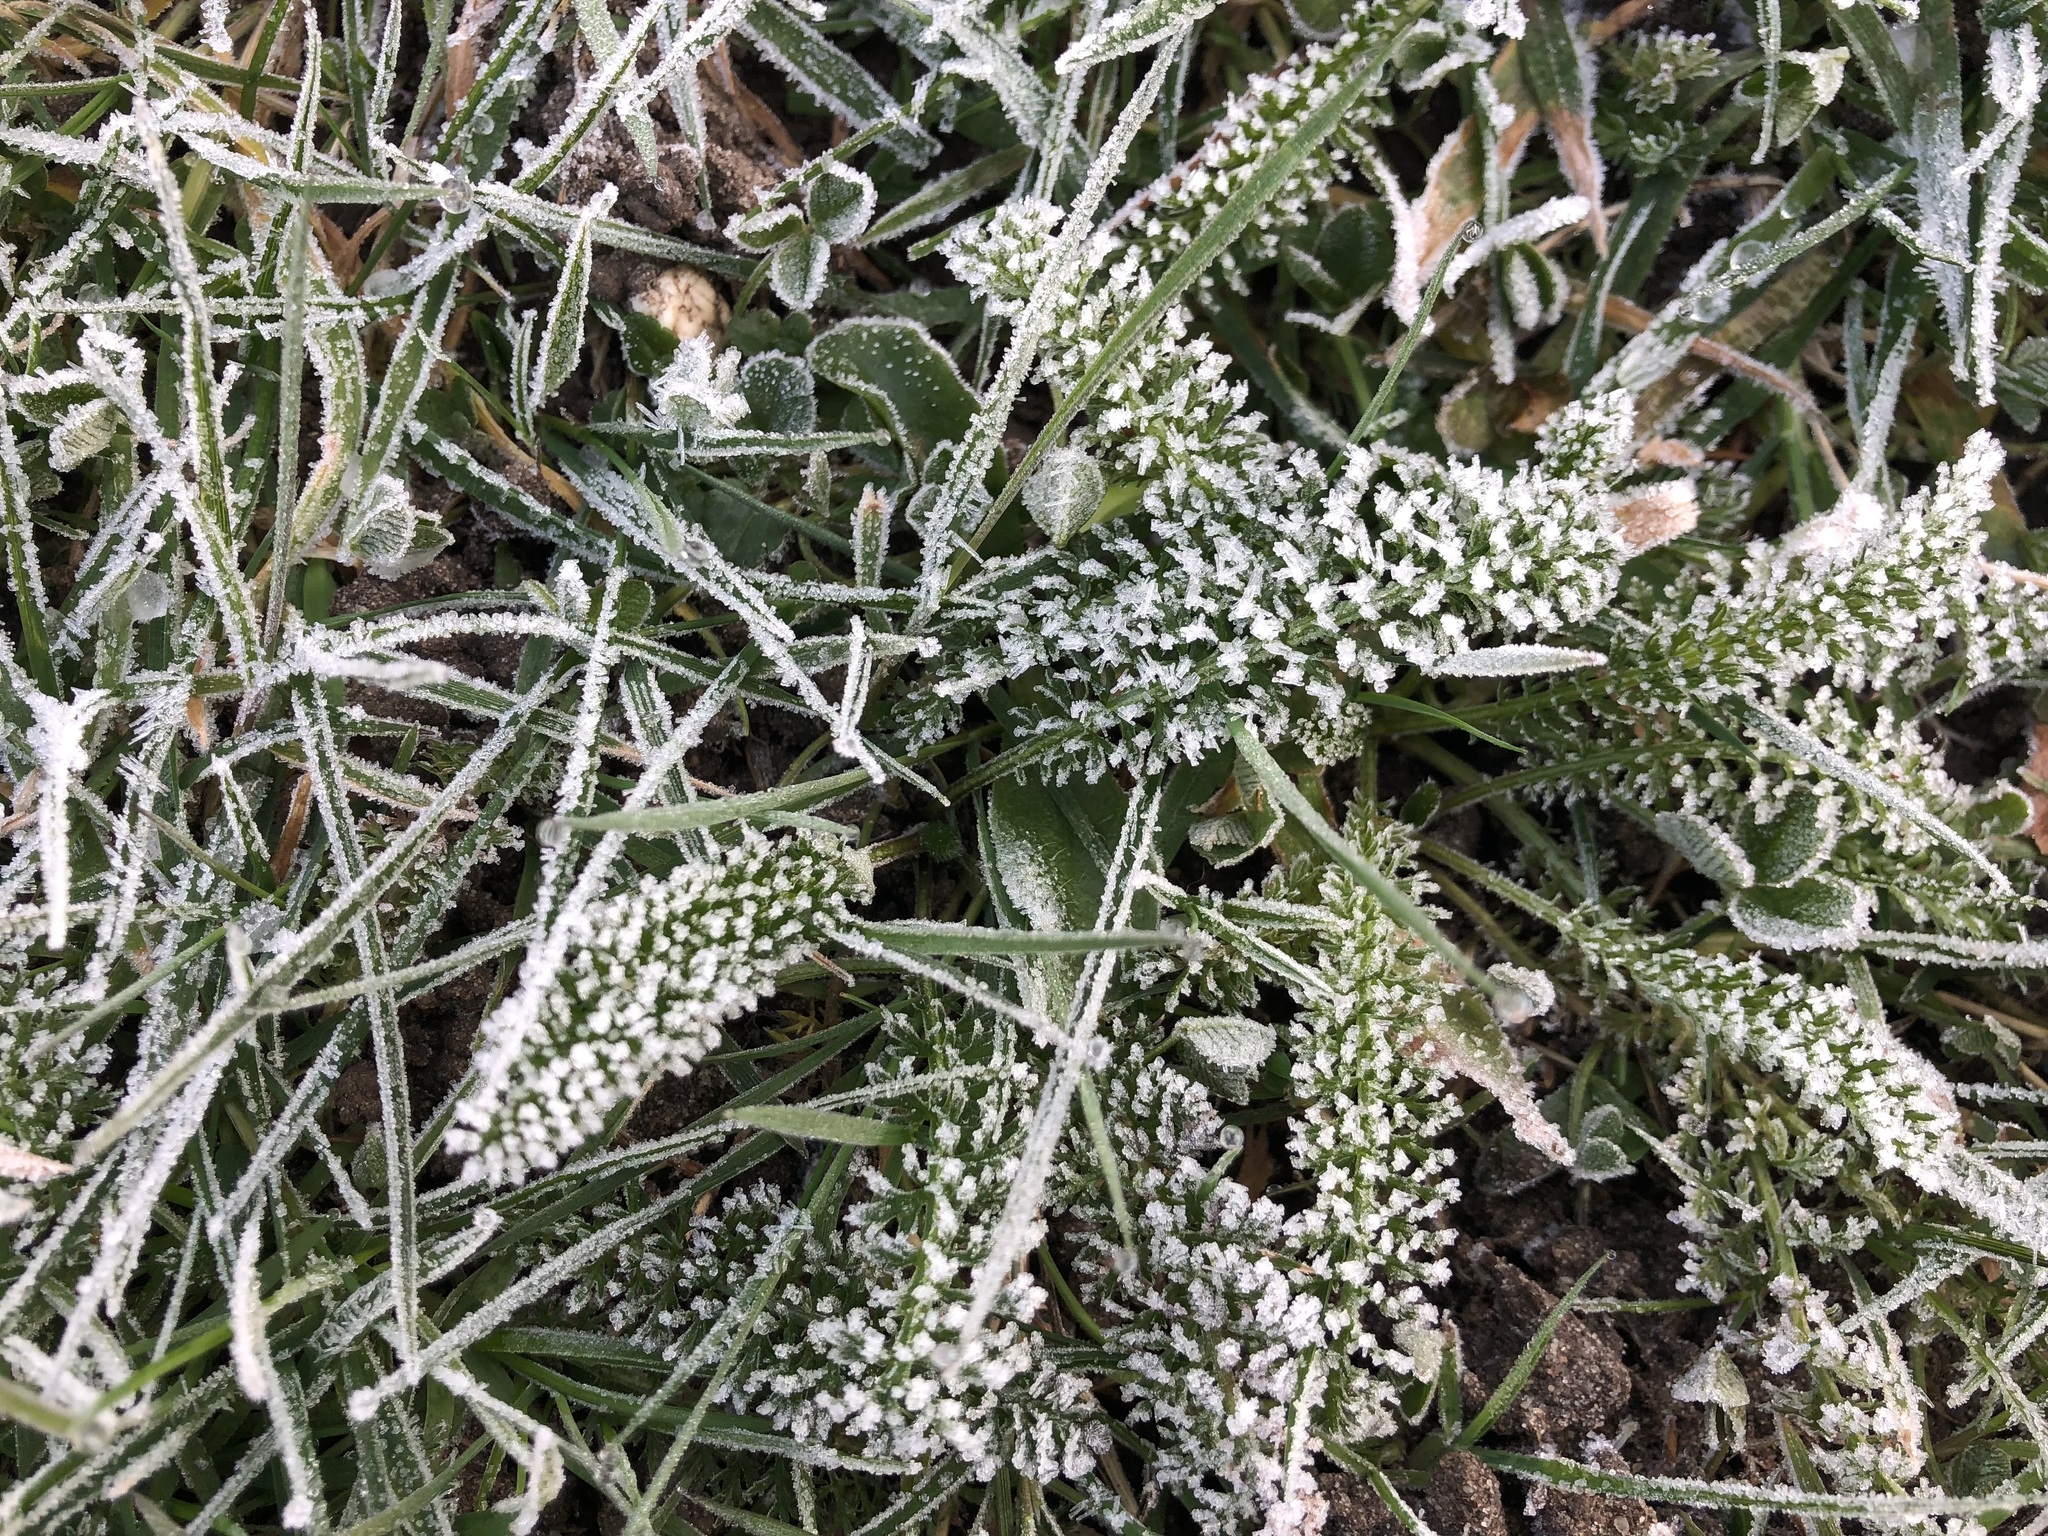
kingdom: Plantae
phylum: Tracheophyta
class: Magnoliopsida
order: Asterales
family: Asteraceae
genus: Achillea
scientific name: Achillea millefolium
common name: Yarrow
